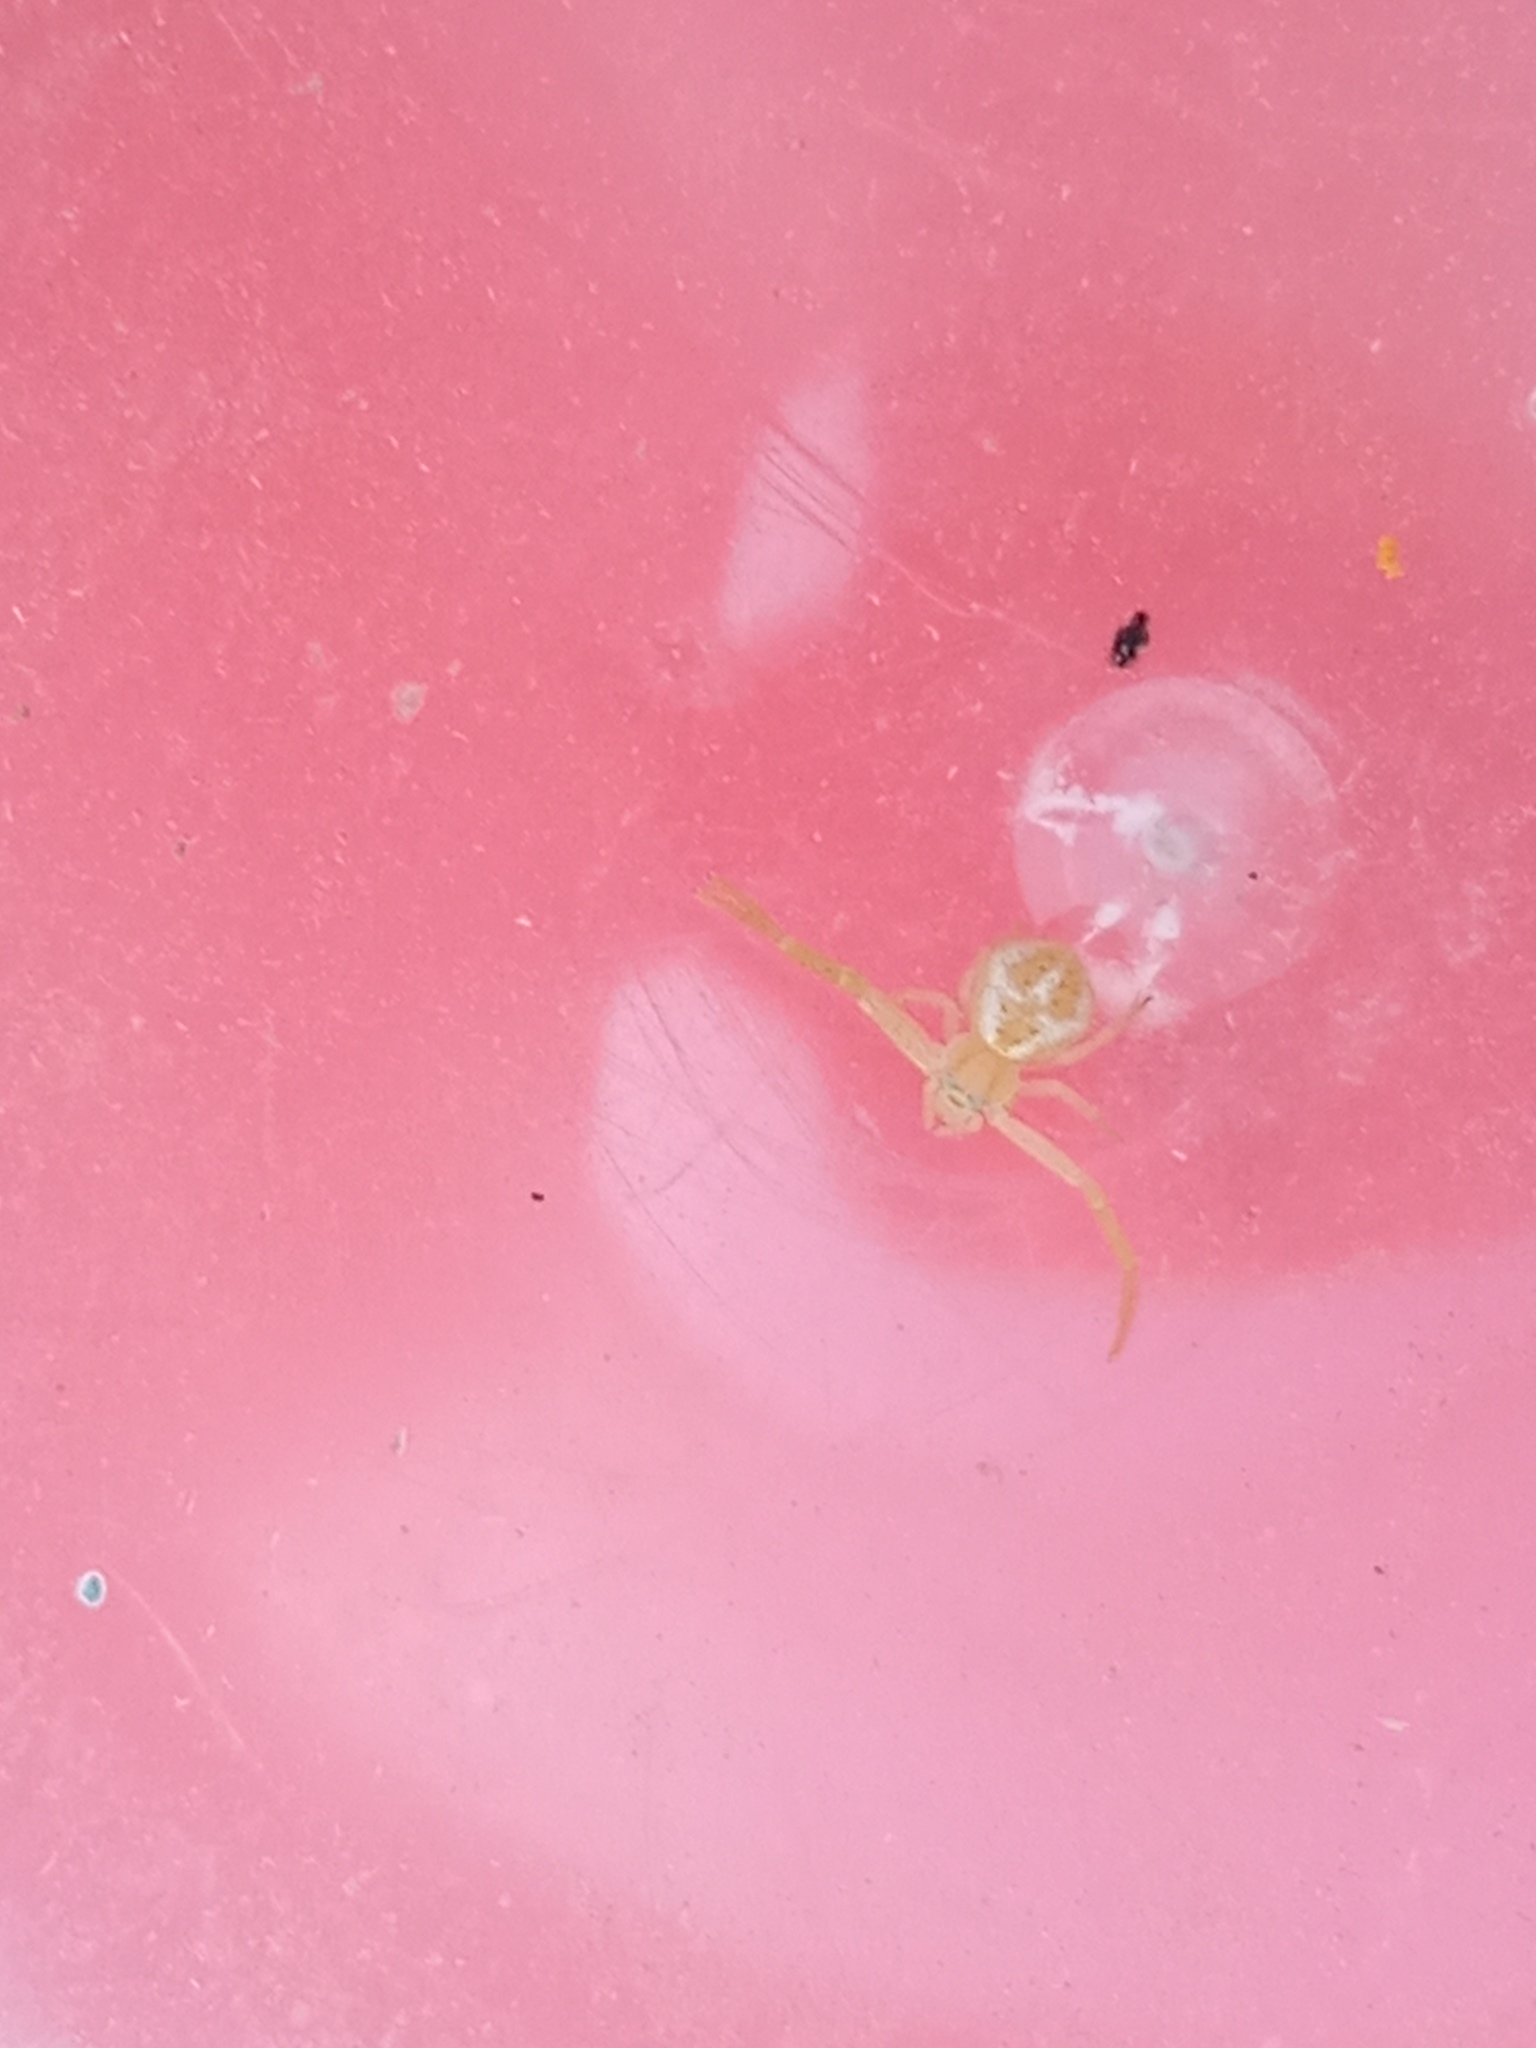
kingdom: Animalia
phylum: Arthropoda
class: Arachnida
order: Araneae
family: Thomisidae
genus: Misumenops
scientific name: Misumenops
